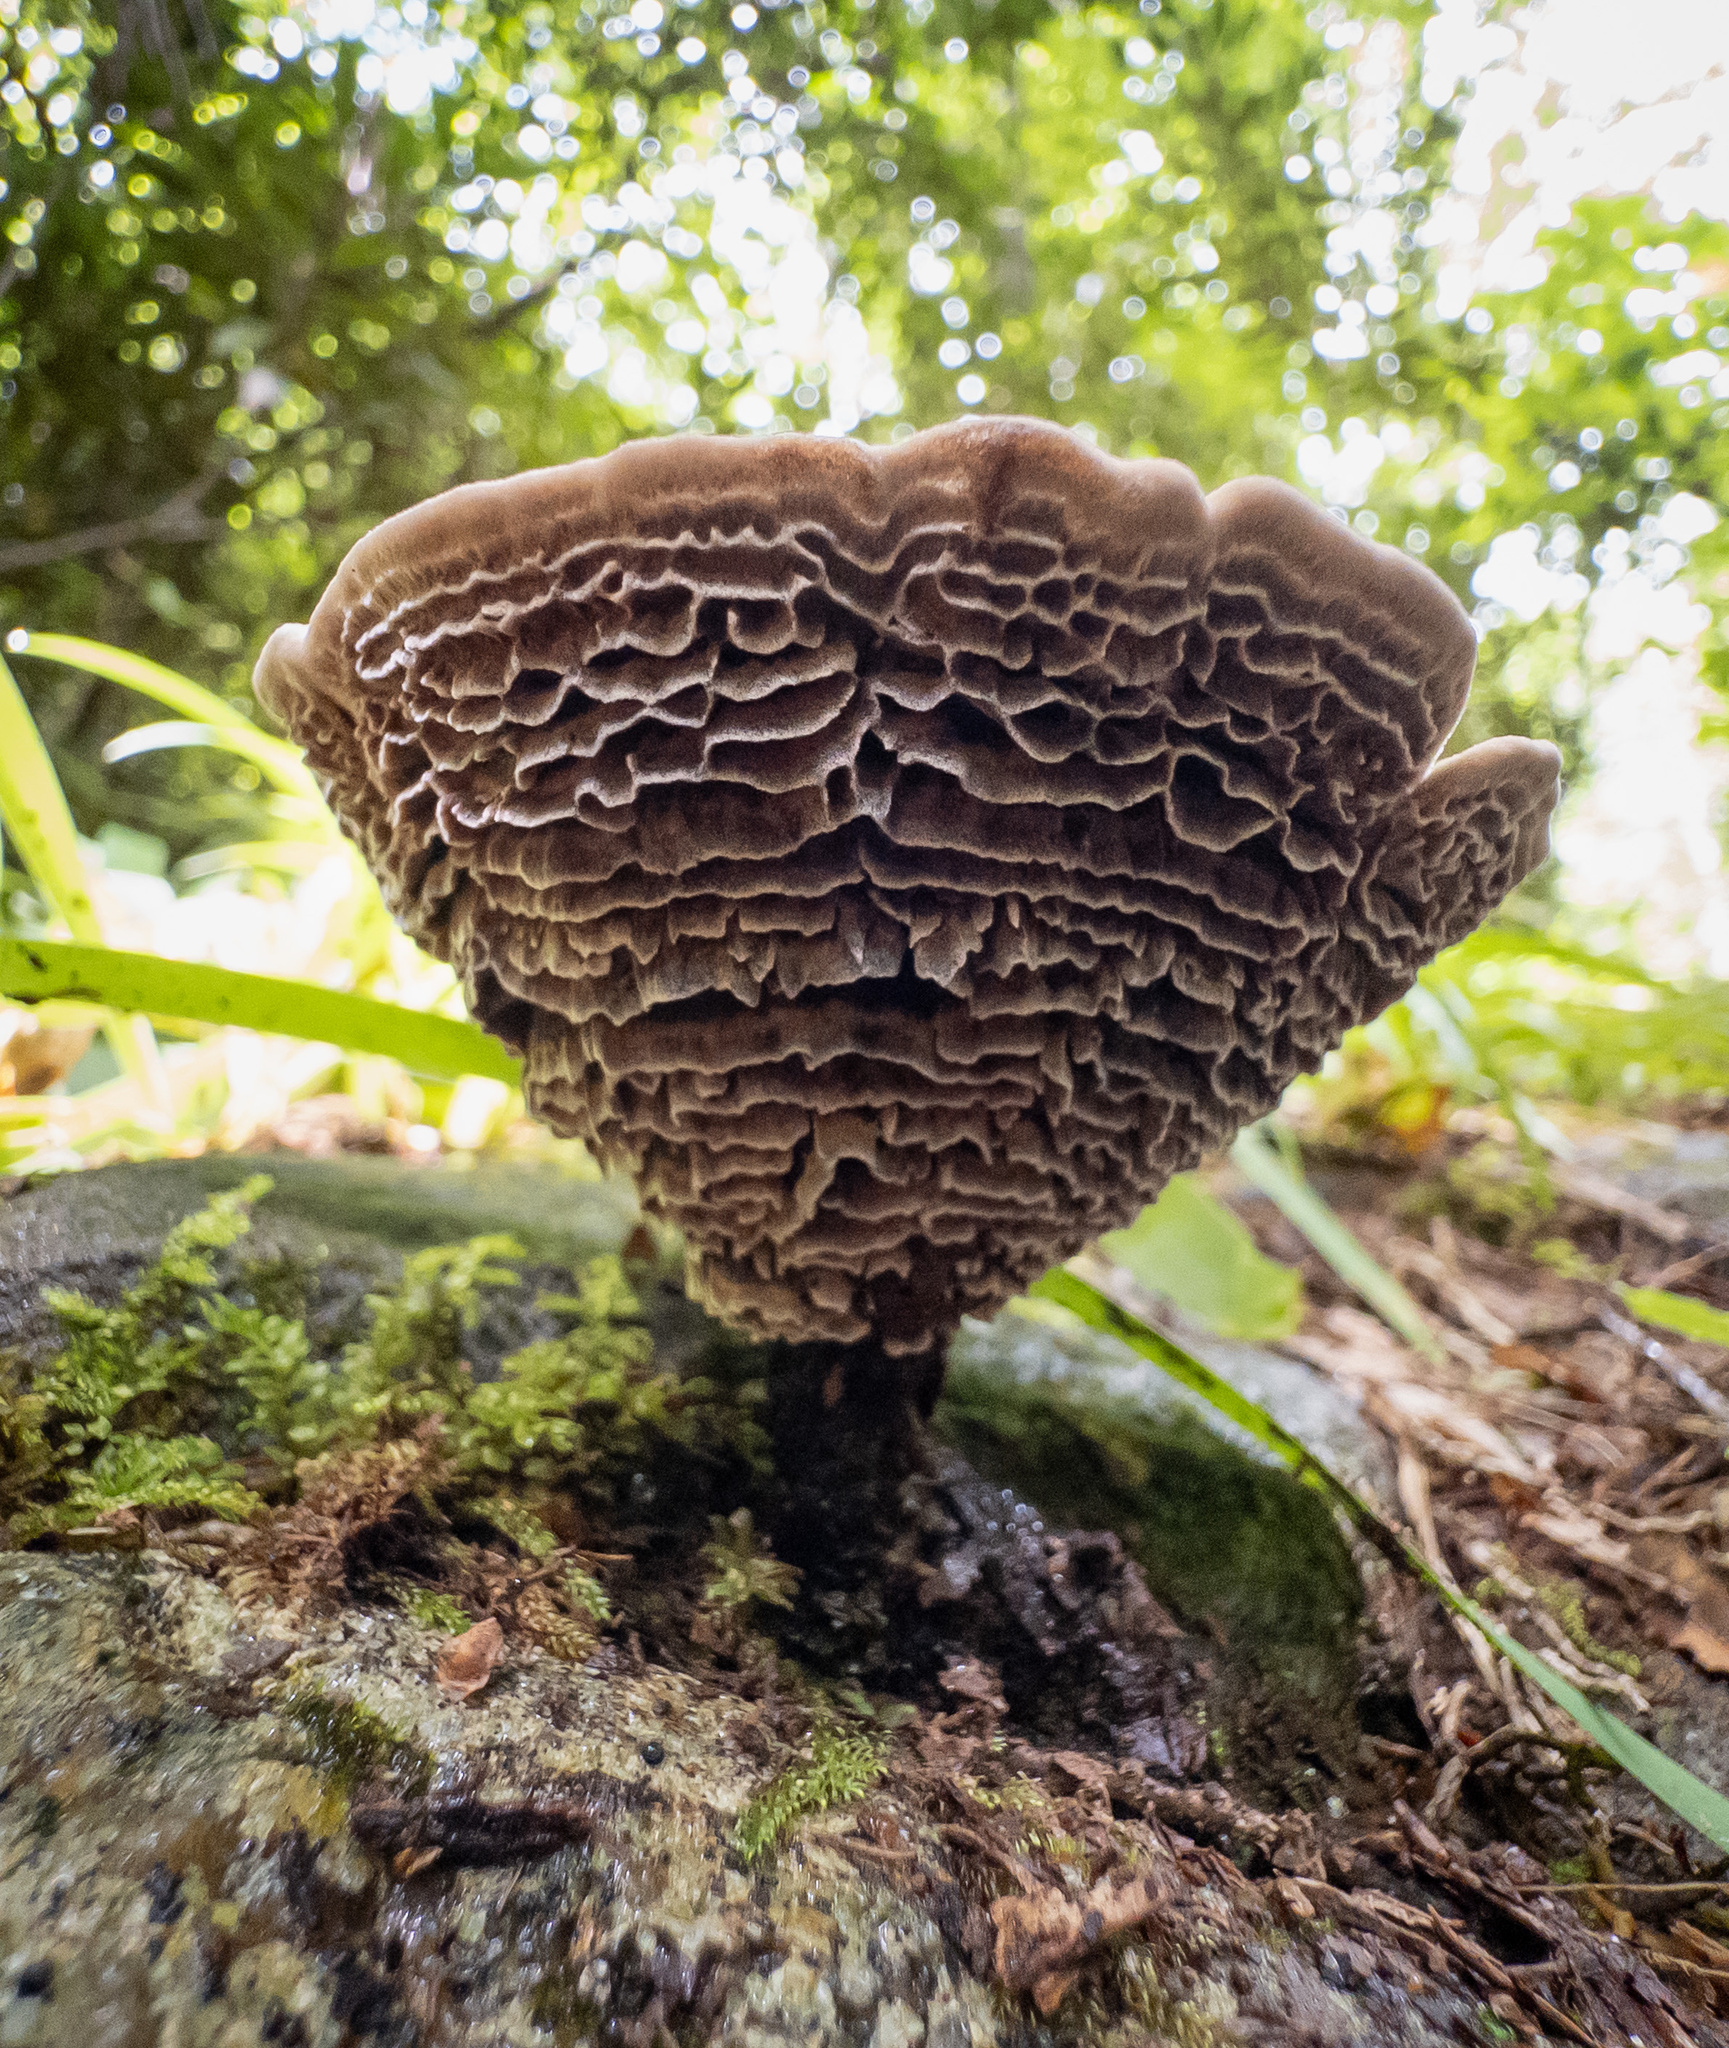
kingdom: Fungi
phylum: Basidiomycota
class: Agaricomycetes
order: Hymenochaetales
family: Hymenochaetaceae
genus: Coltricia
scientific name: Coltricia montagnei
